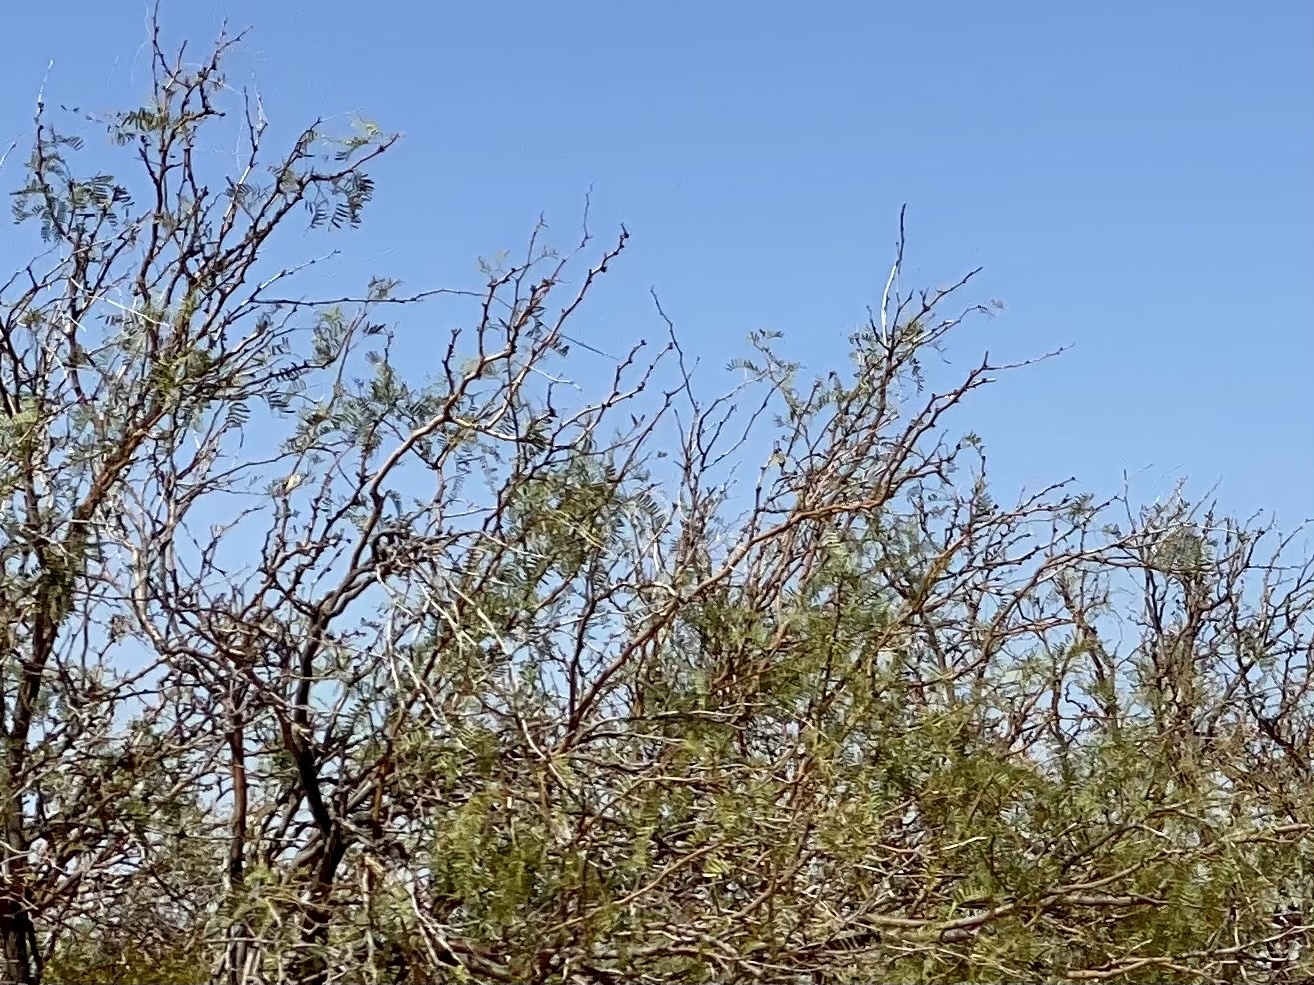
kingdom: Plantae
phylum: Tracheophyta
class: Magnoliopsida
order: Fabales
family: Fabaceae
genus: Prosopis
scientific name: Prosopis glandulosa
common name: Honey mesquite
